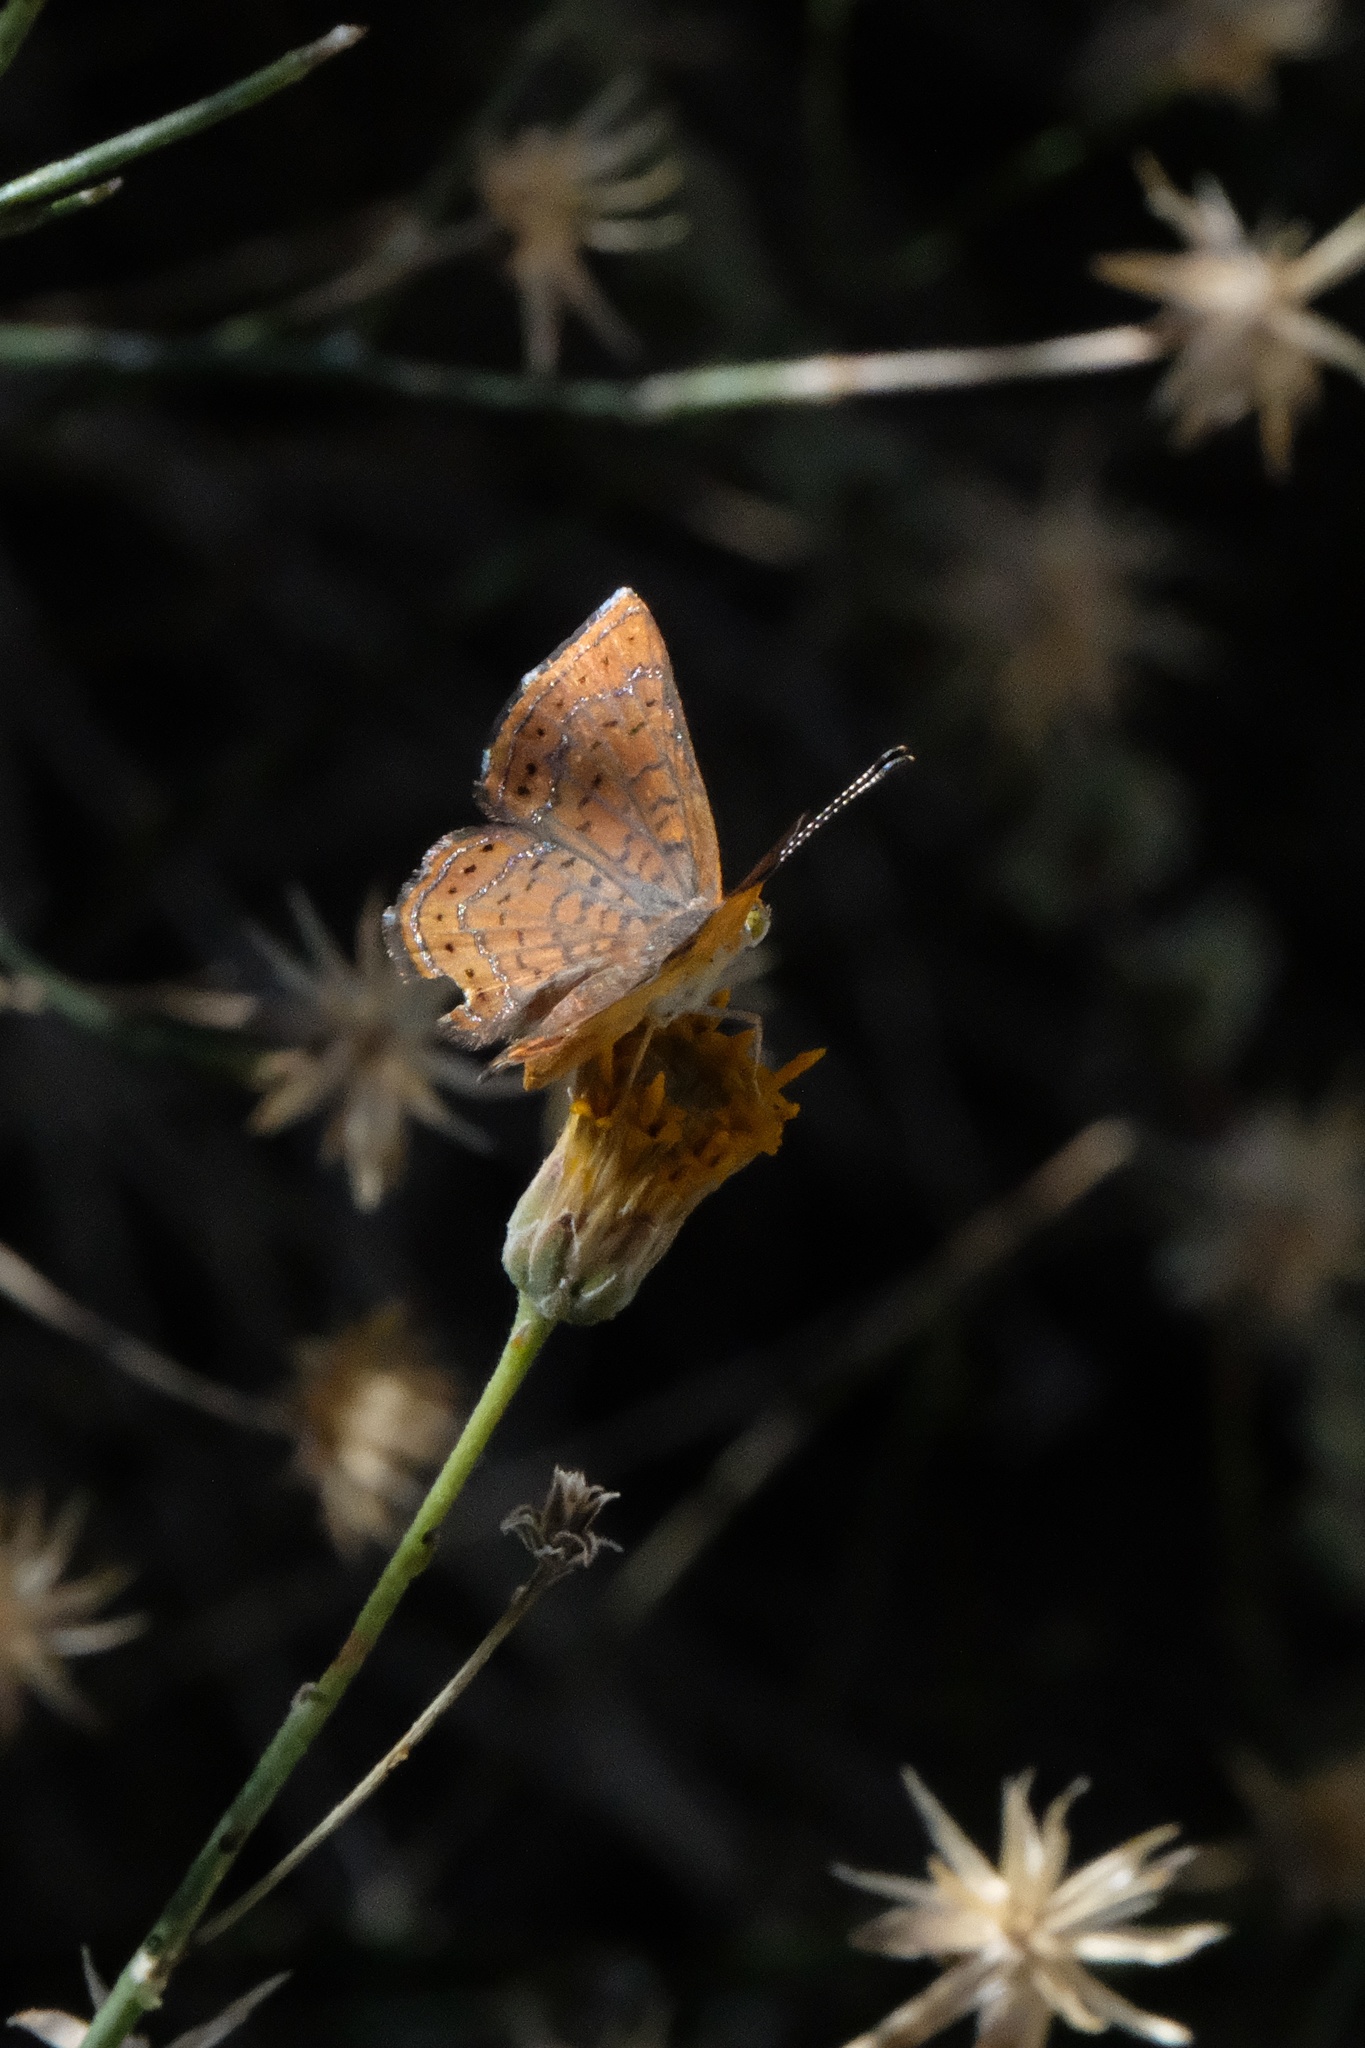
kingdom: Animalia
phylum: Arthropoda
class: Insecta
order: Lepidoptera
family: Lycaenidae
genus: Emesis
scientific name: Emesis wrighti
